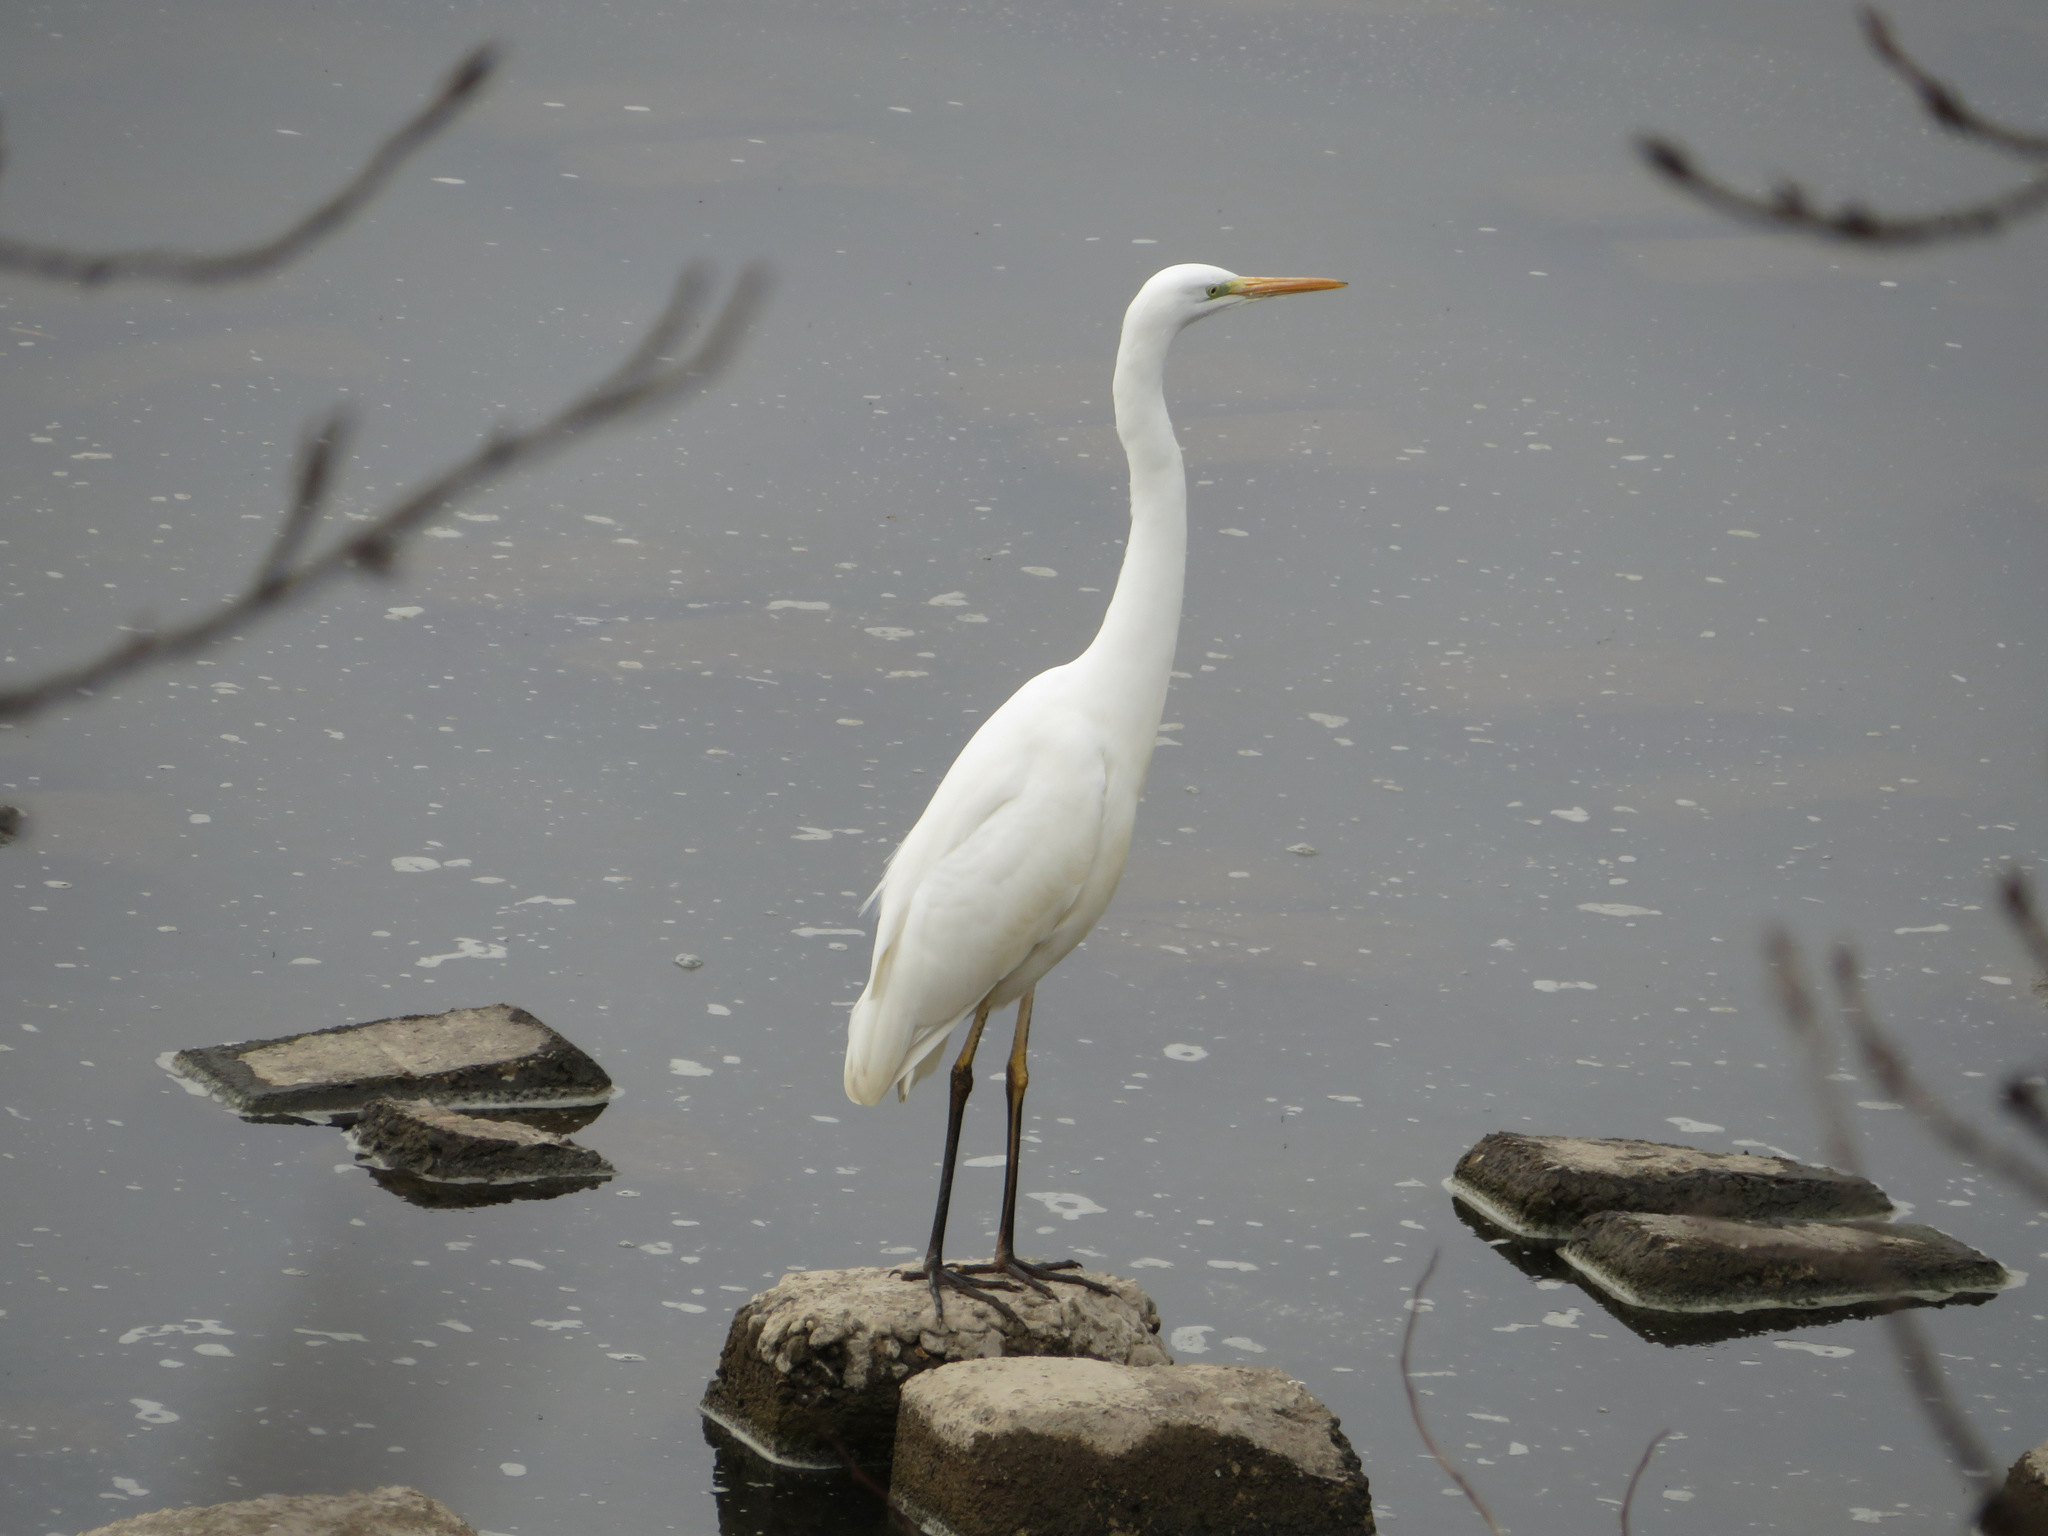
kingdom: Animalia
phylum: Chordata
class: Aves
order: Pelecaniformes
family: Ardeidae
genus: Ardea
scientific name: Ardea alba
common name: Great egret
